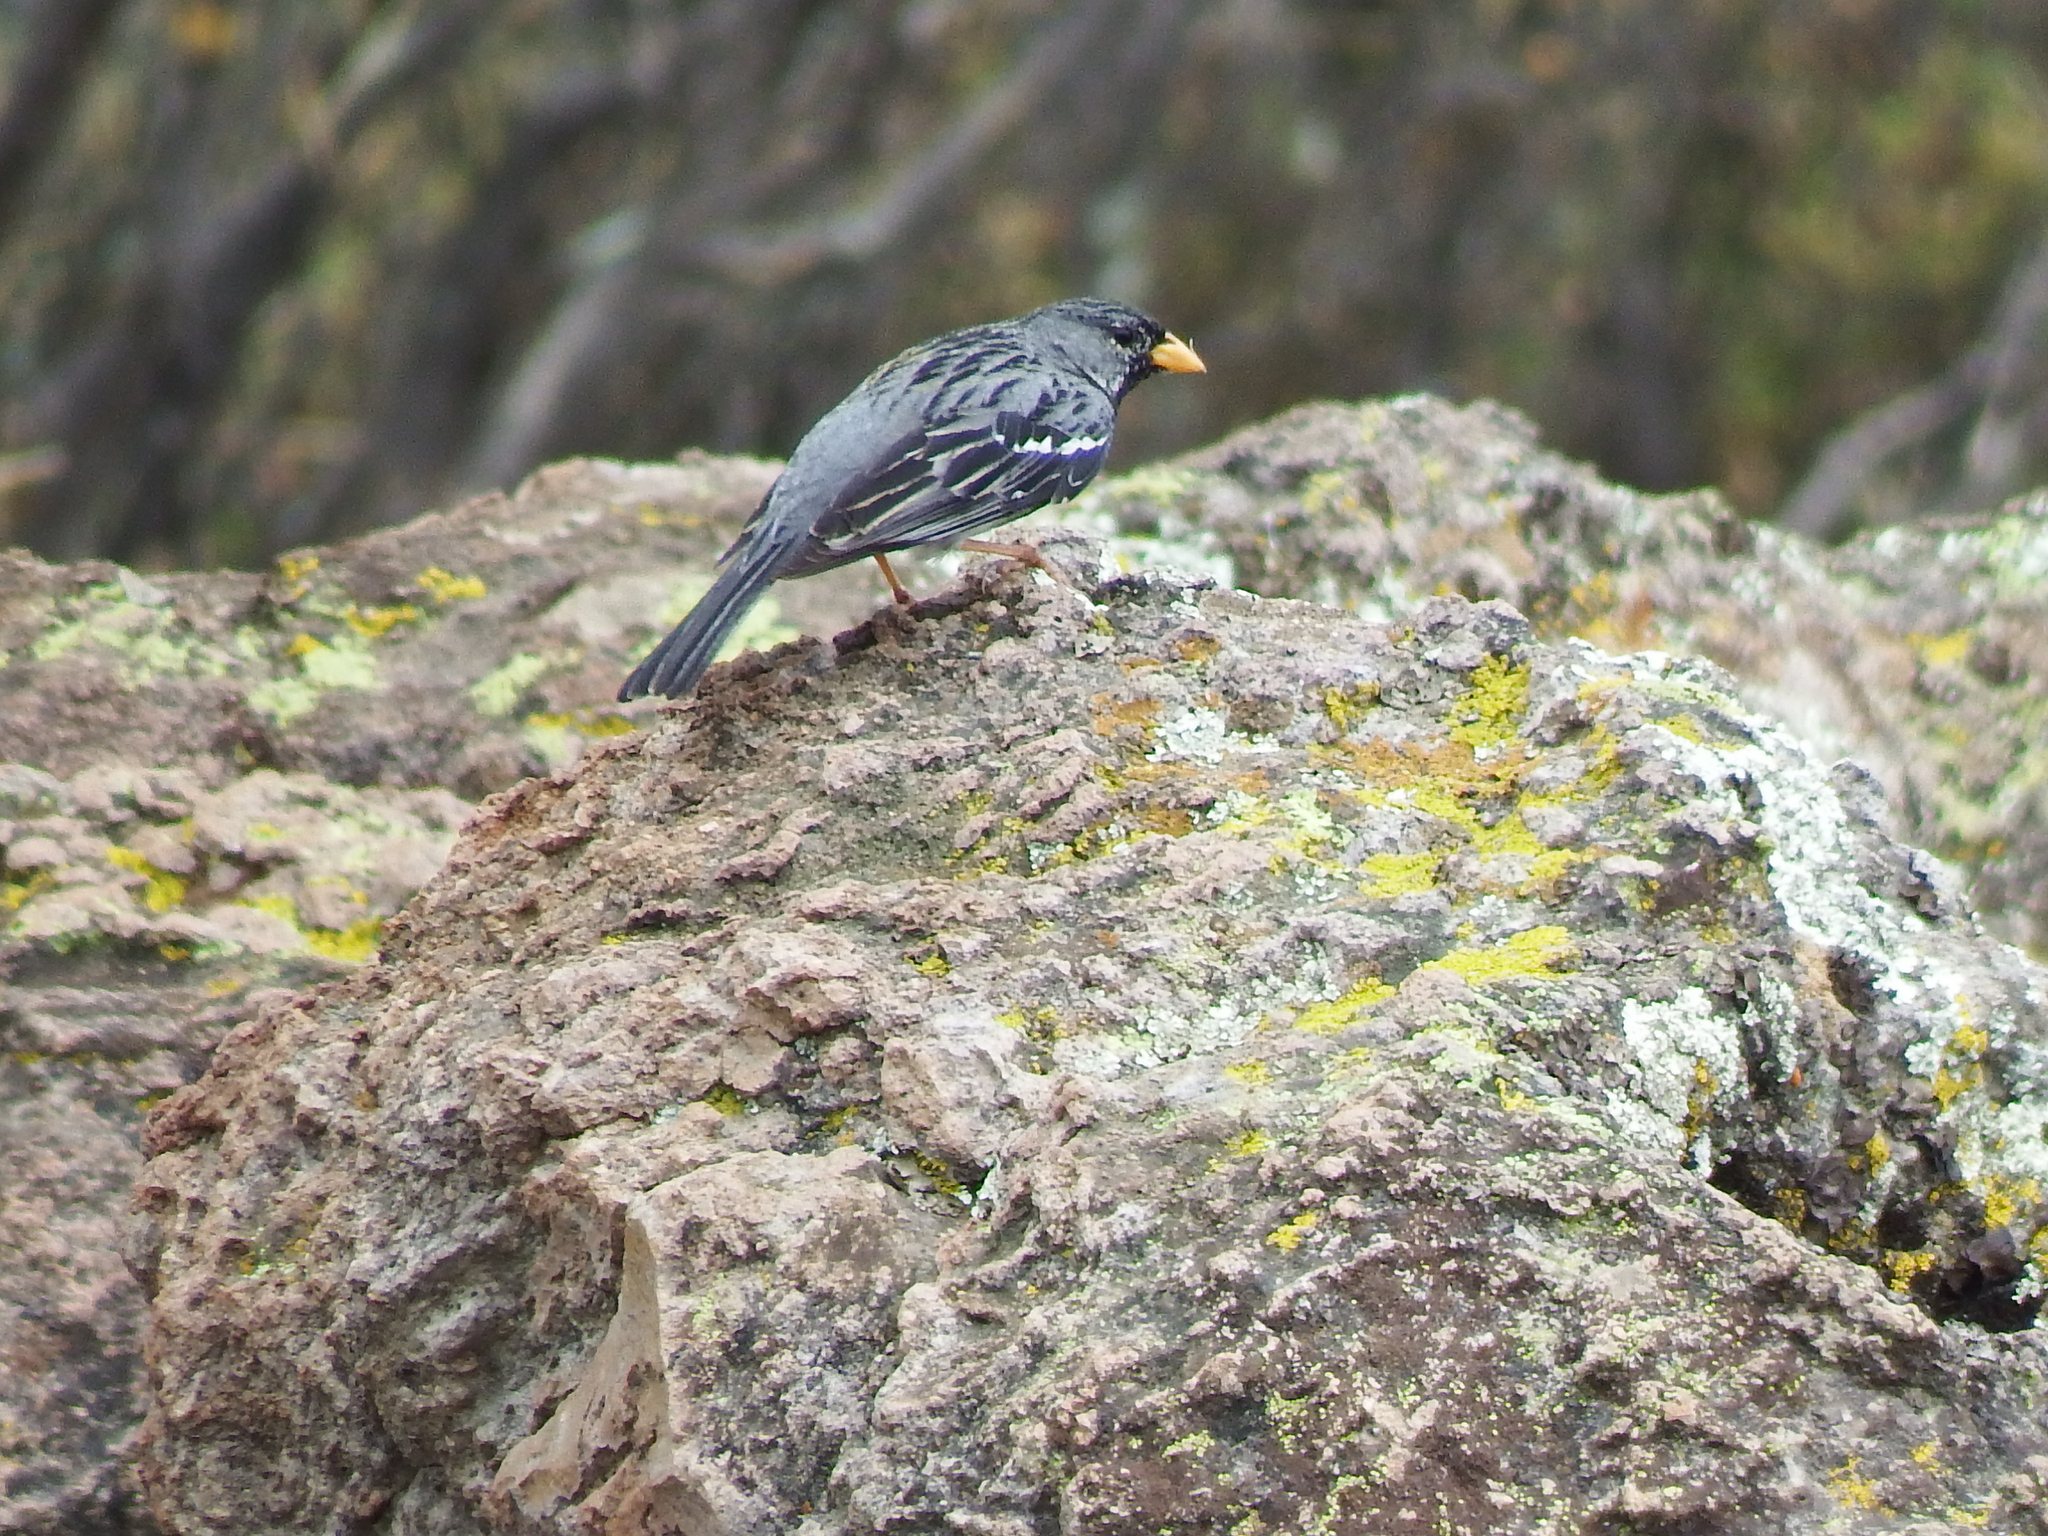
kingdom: Animalia
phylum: Chordata
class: Aves
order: Passeriformes
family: Thraupidae
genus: Rhopospina
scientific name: Rhopospina fruticeti
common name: Mourning sierra finch
